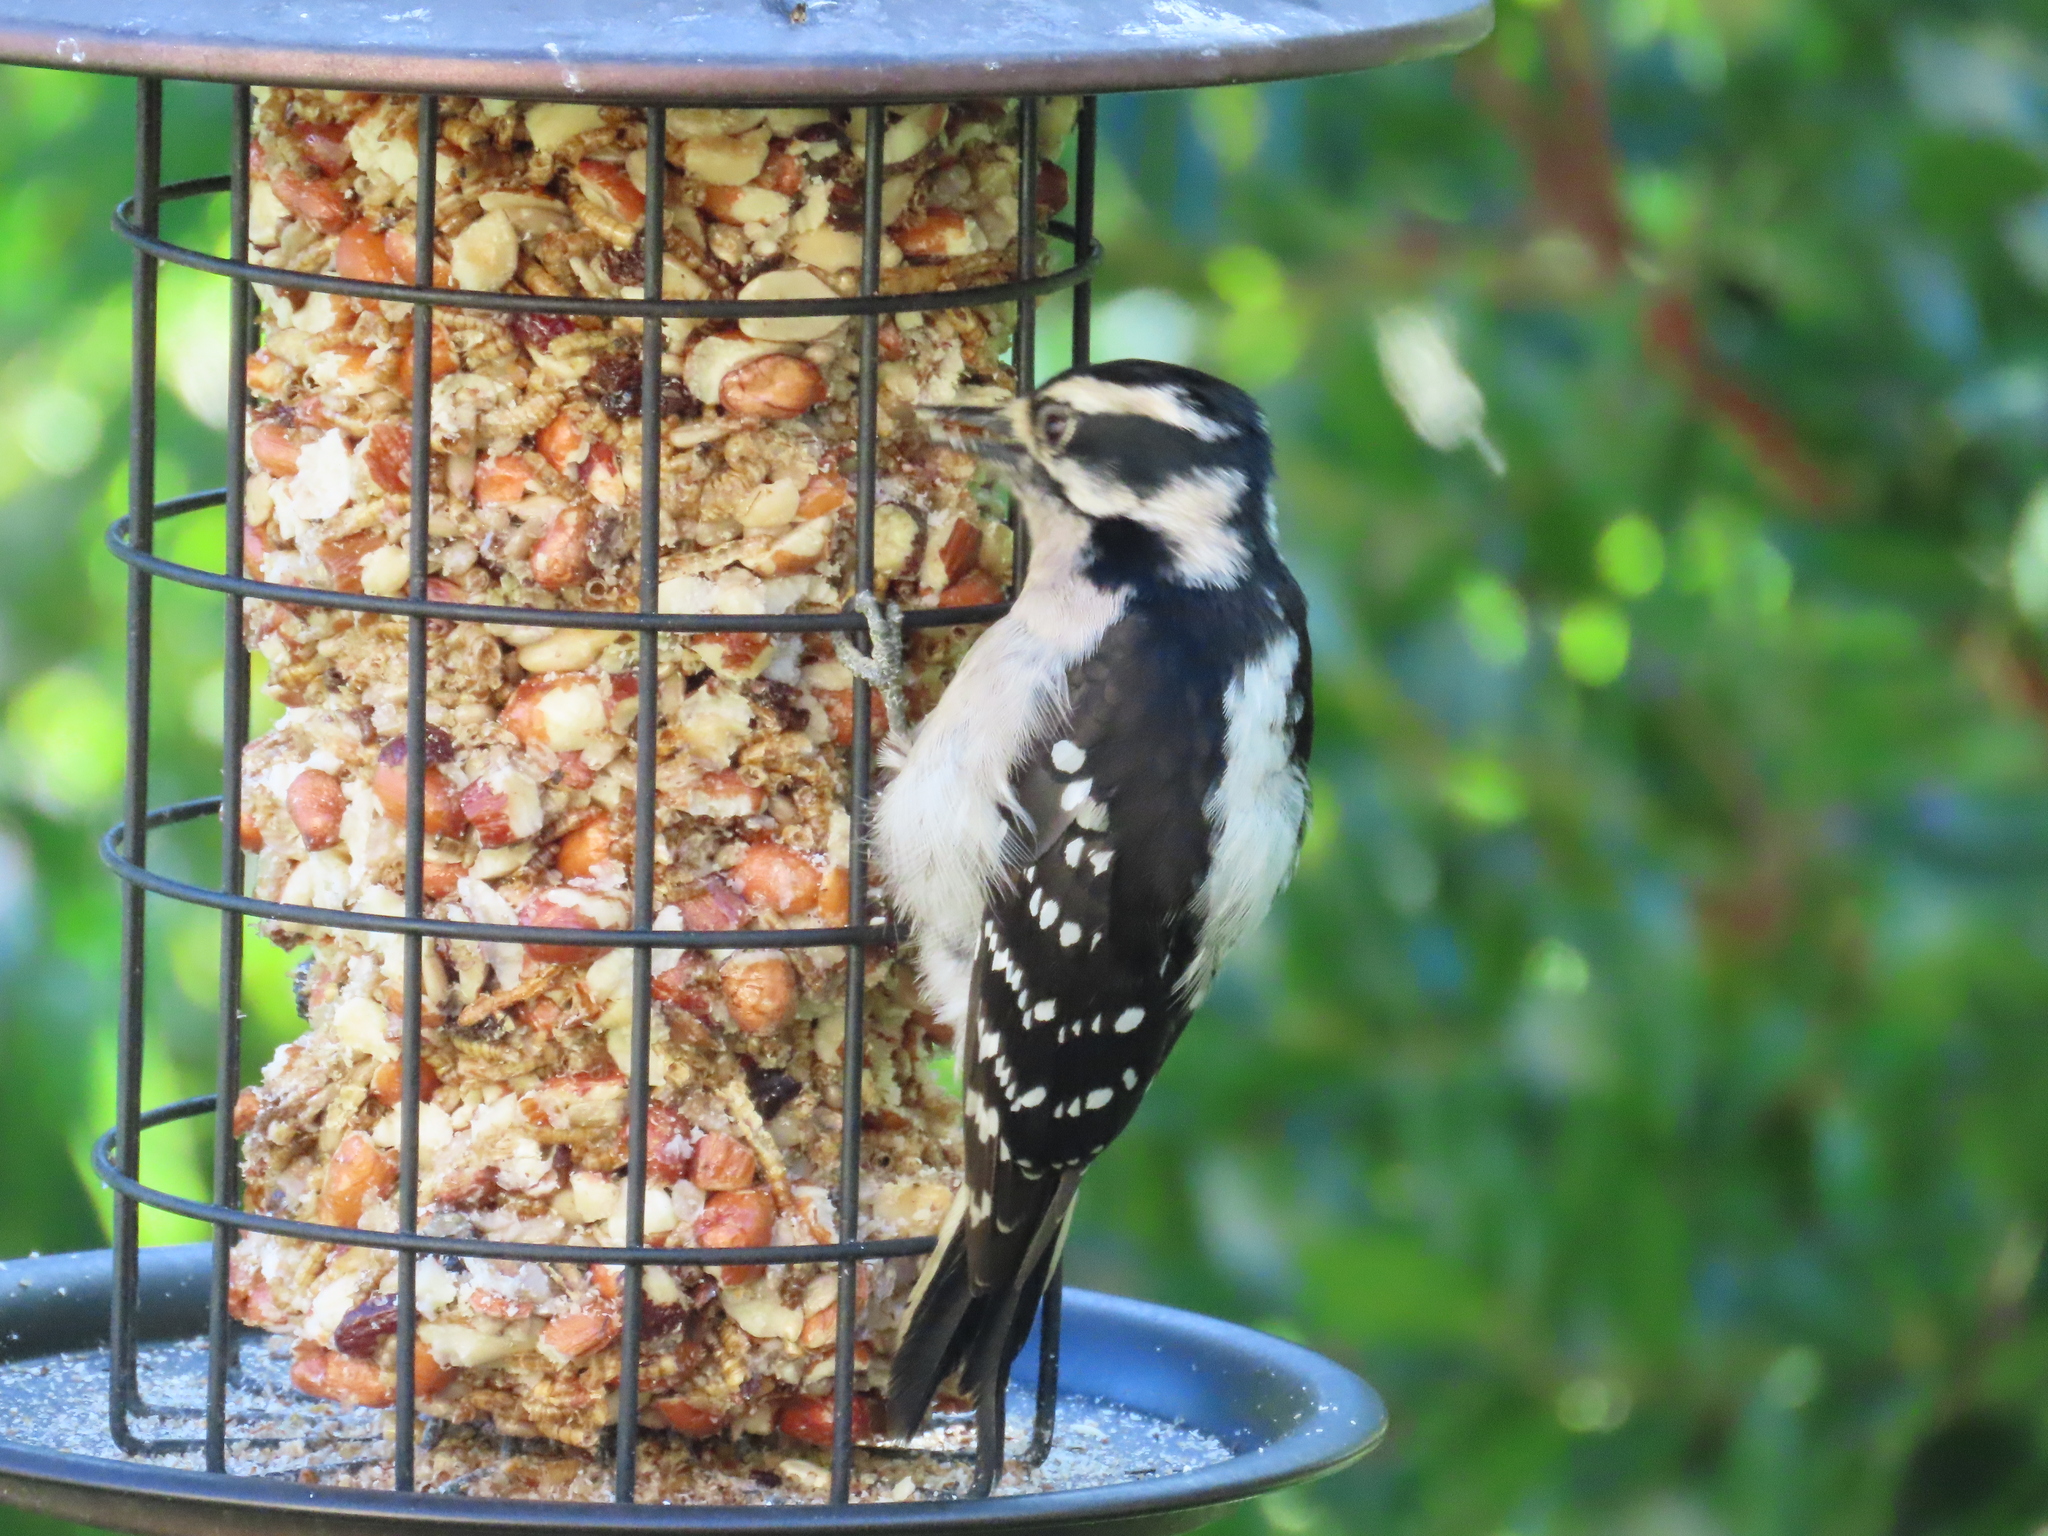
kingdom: Animalia
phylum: Chordata
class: Aves
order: Piciformes
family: Picidae
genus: Dryobates
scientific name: Dryobates pubescens
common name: Downy woodpecker
